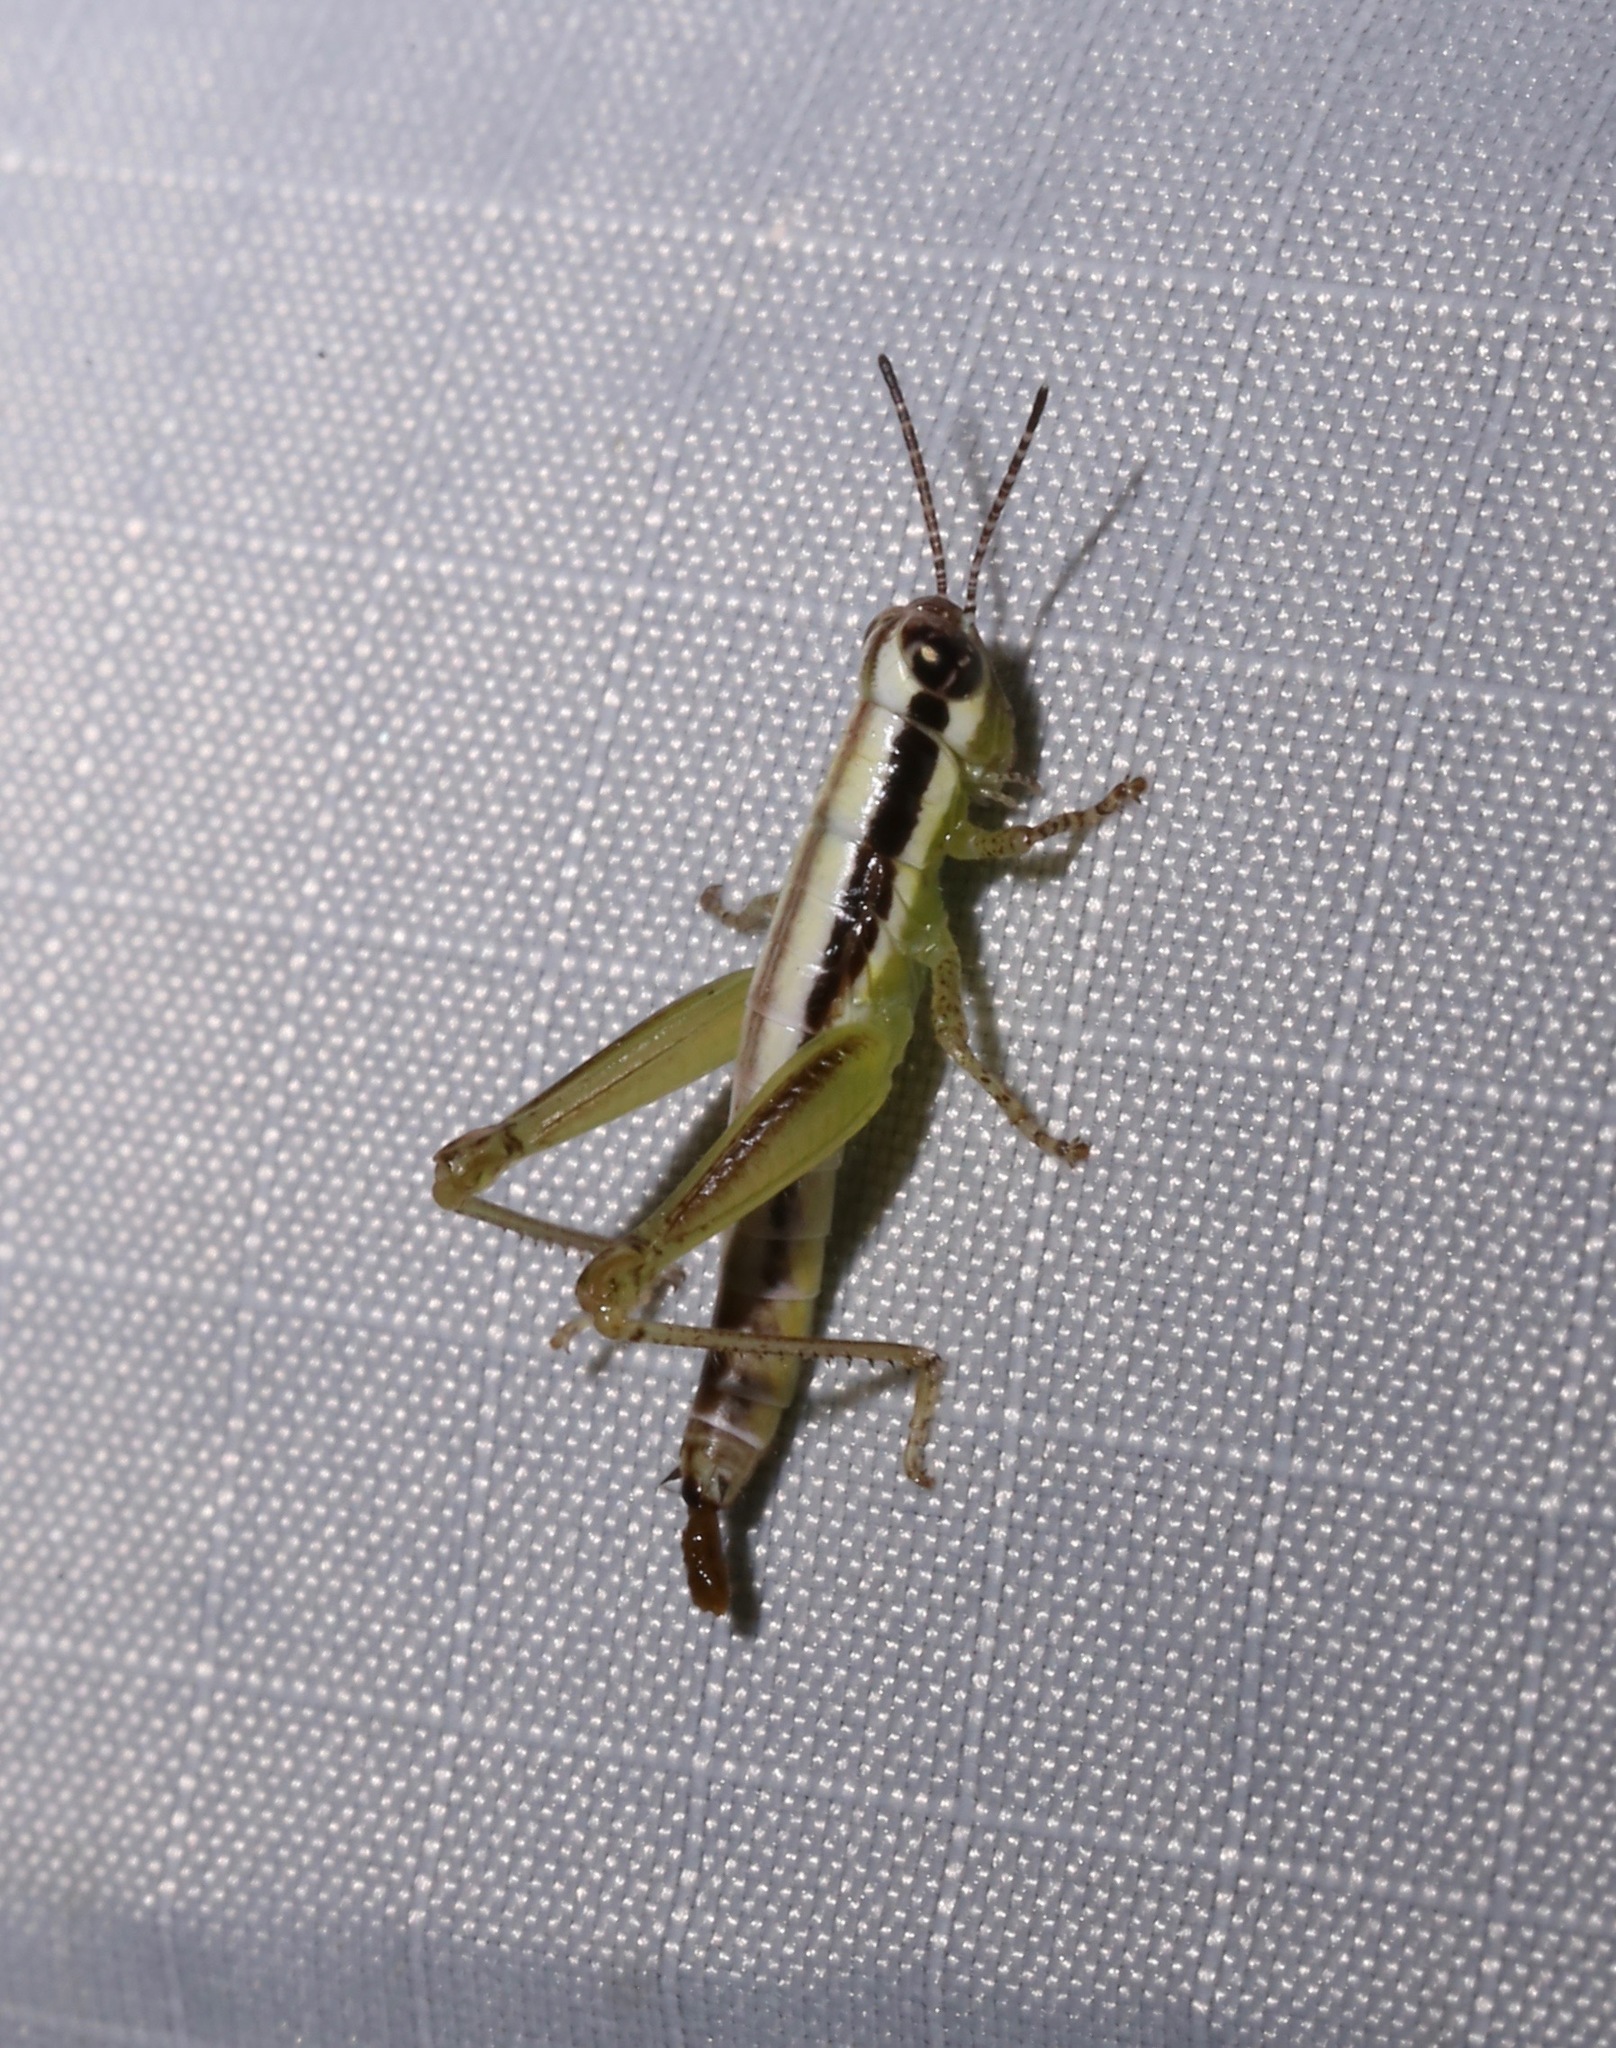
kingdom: Animalia
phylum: Arthropoda
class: Insecta
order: Orthoptera
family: Acrididae
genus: Gymnoscirtetes
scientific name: Gymnoscirtetes rex
